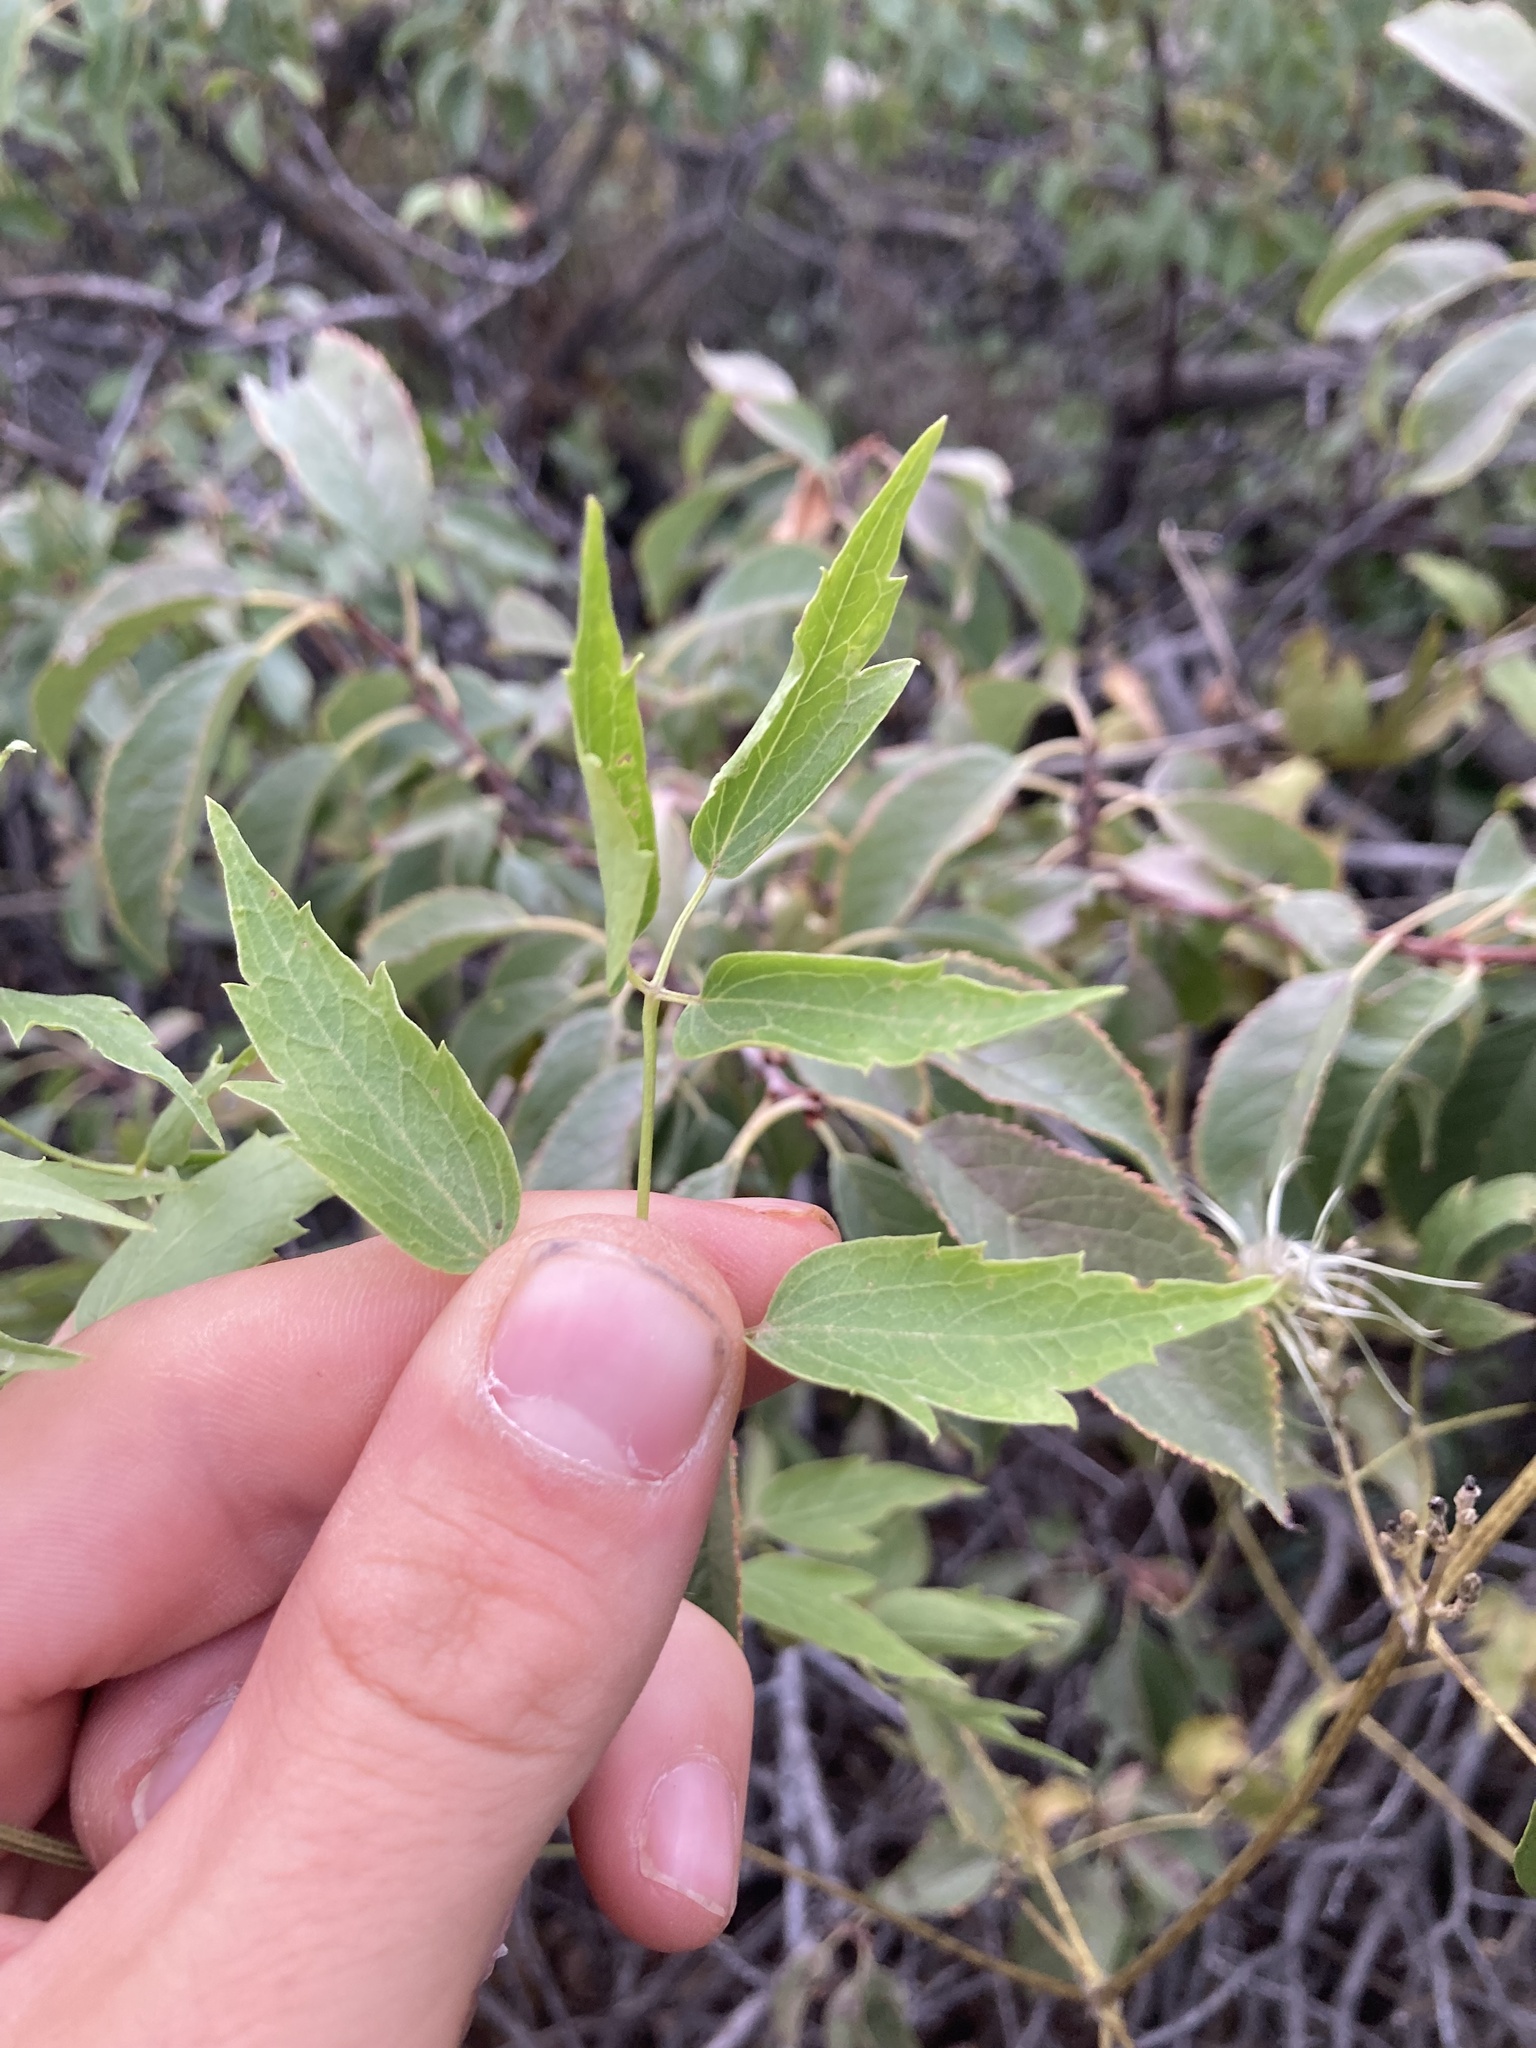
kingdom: Plantae
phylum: Tracheophyta
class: Magnoliopsida
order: Ranunculales
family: Ranunculaceae
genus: Clematis
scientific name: Clematis ligusticifolia
